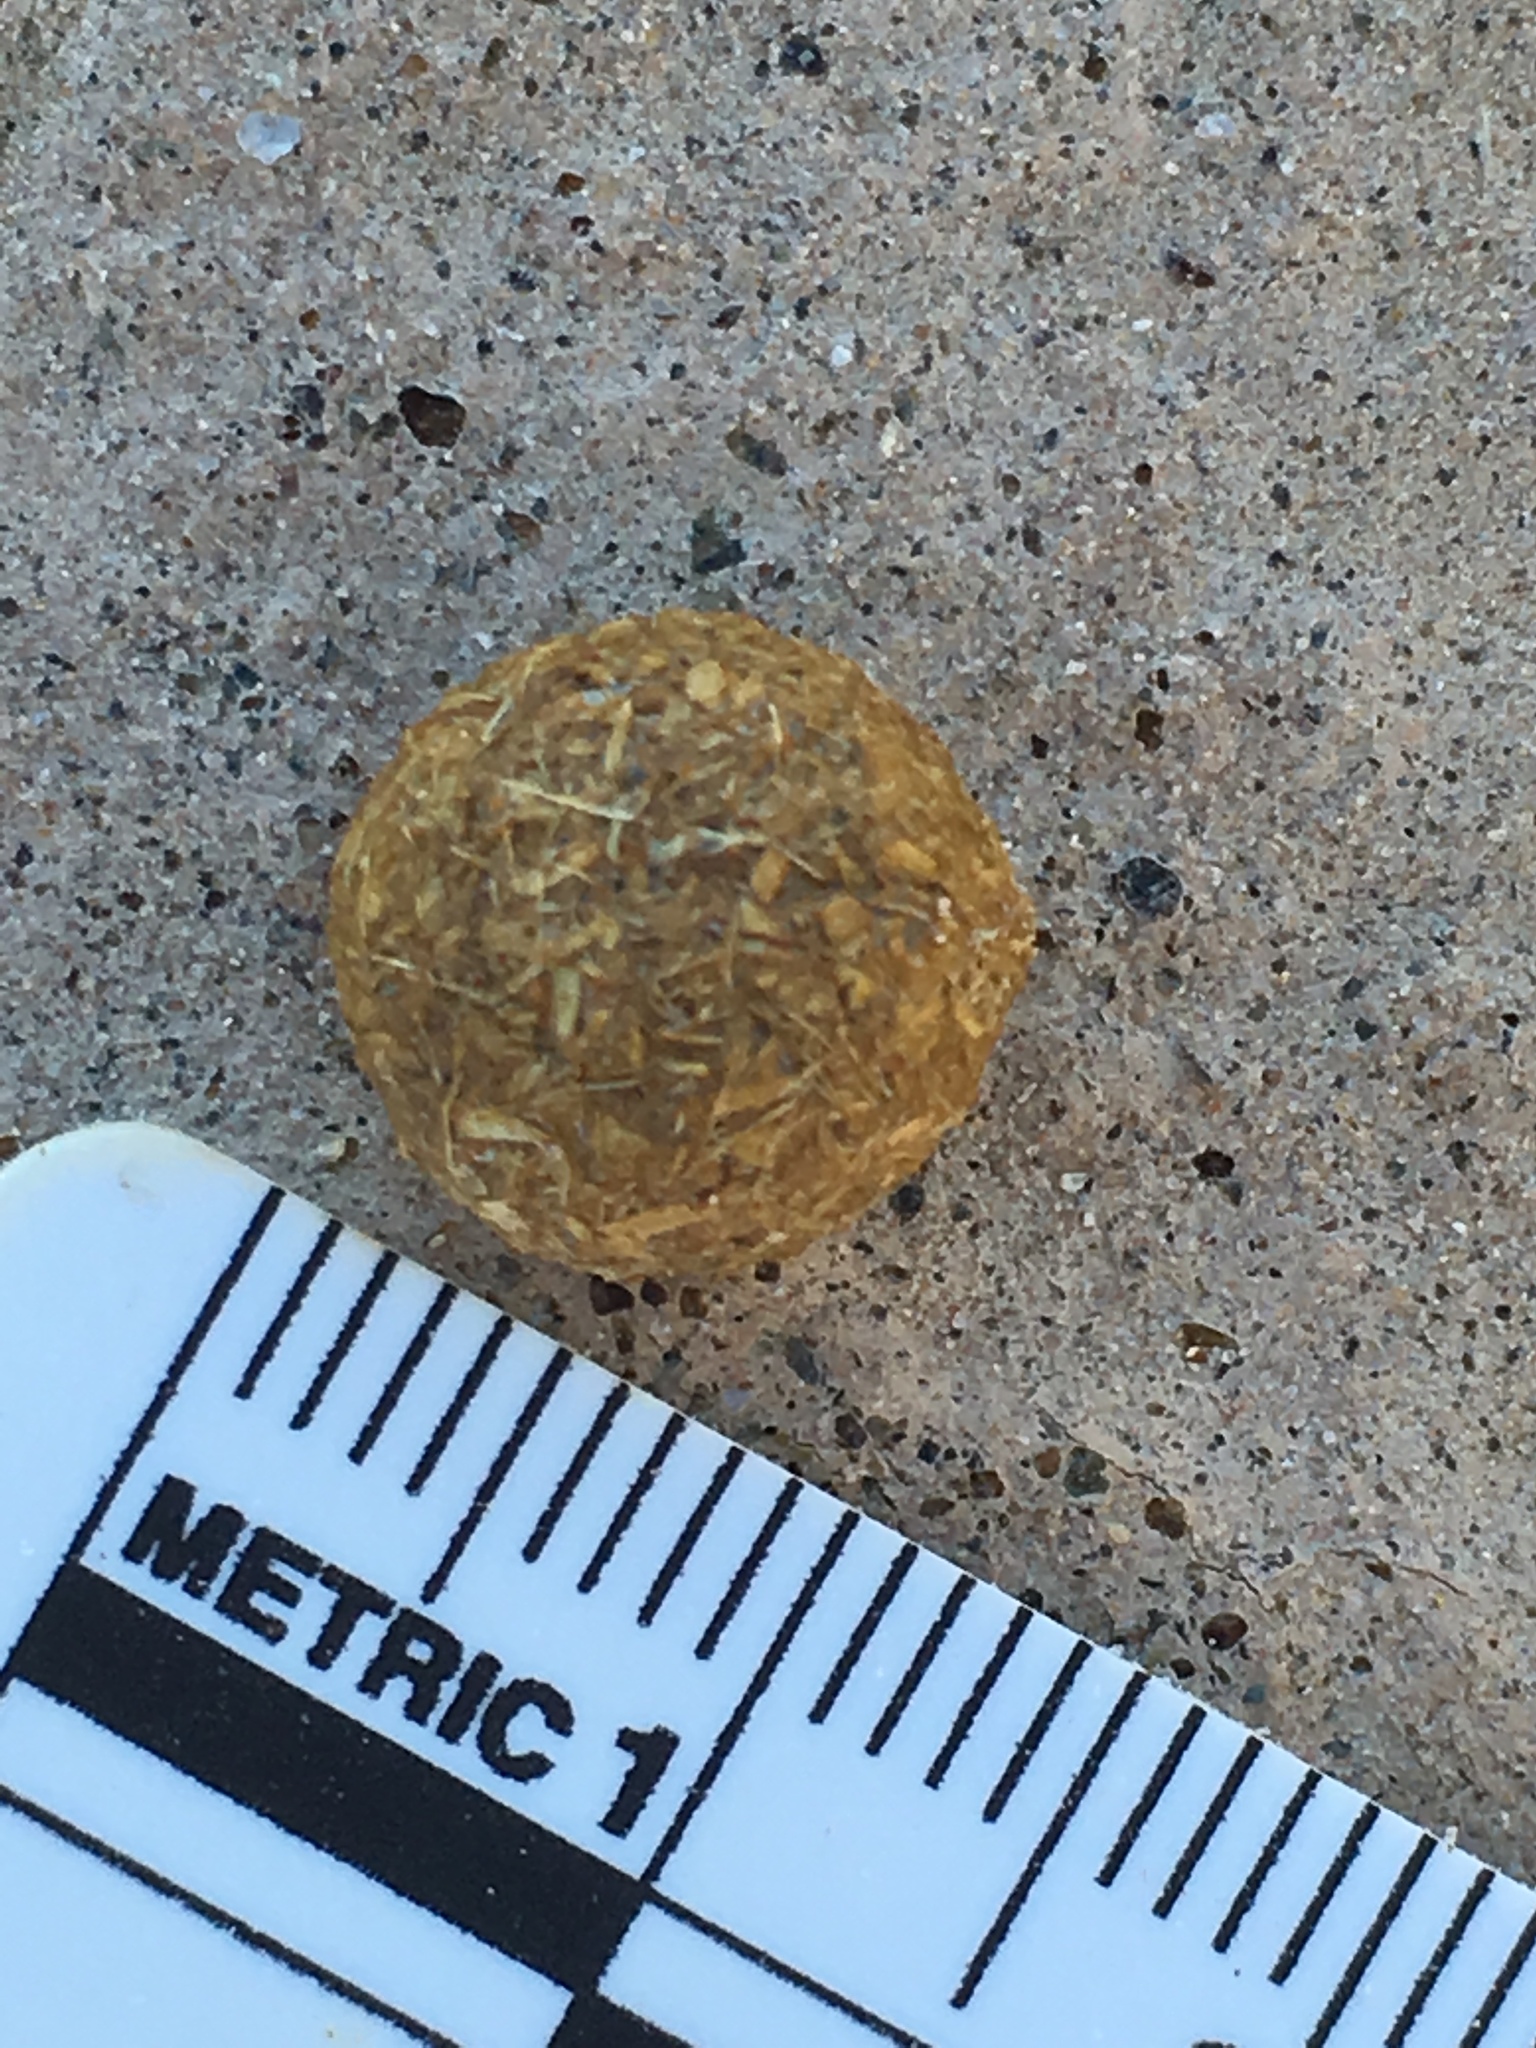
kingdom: Animalia
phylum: Chordata
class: Mammalia
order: Lagomorpha
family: Leporidae
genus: Lepus
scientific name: Lepus californicus
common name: Black-tailed jackrabbit
